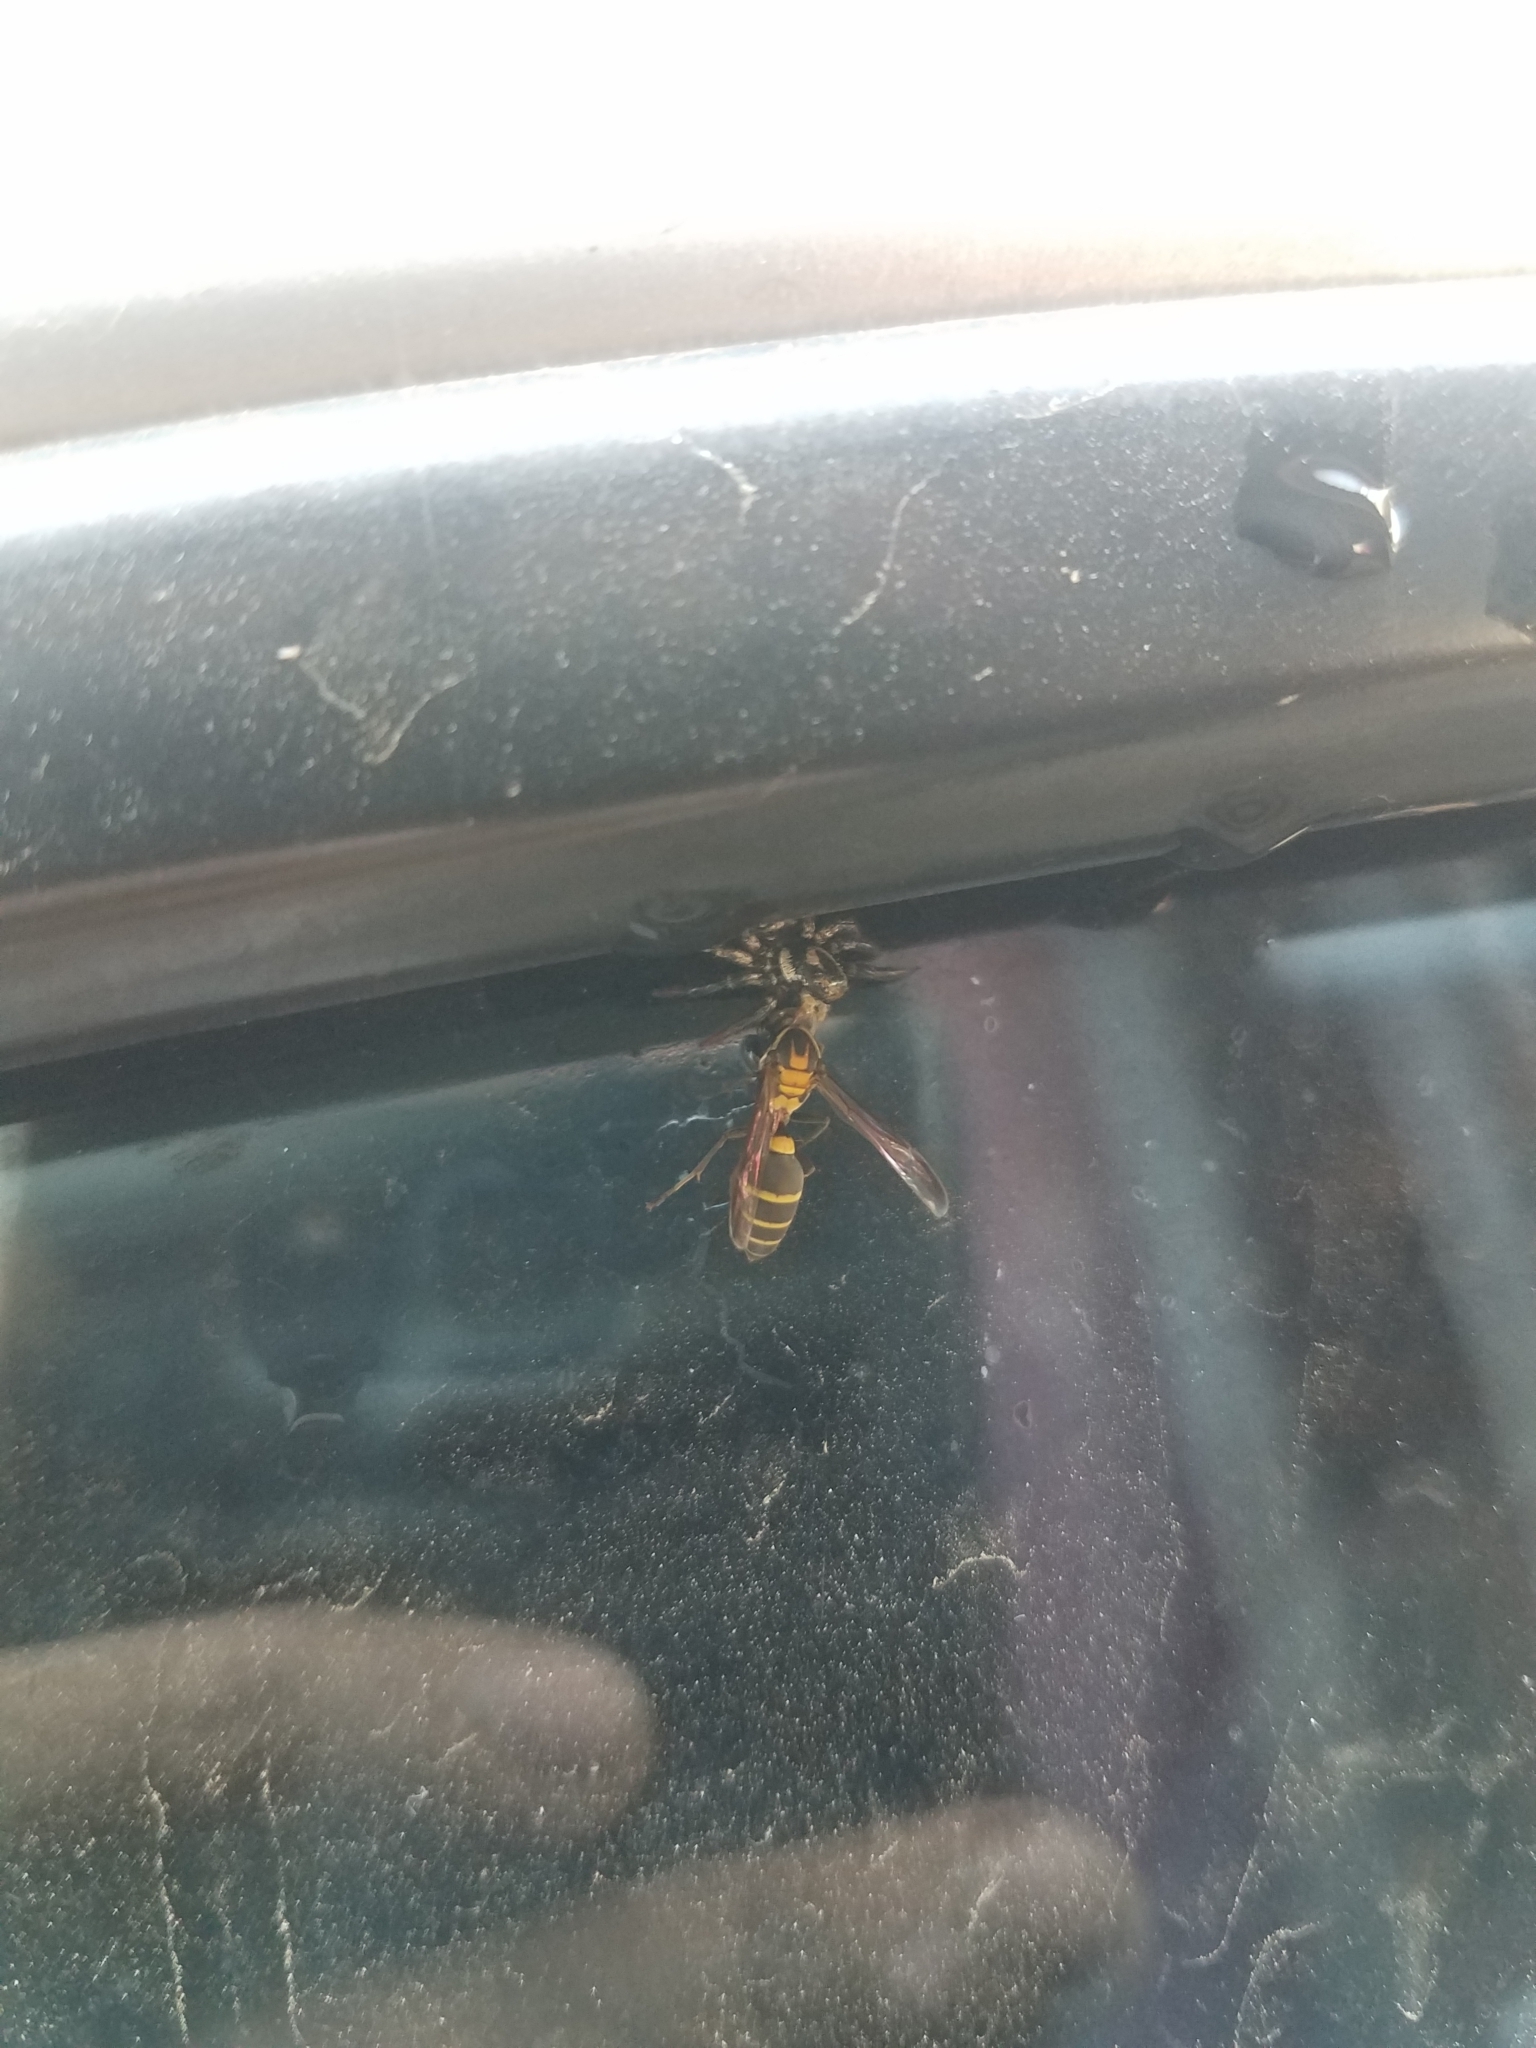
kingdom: Animalia
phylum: Arthropoda
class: Insecta
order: Hymenoptera
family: Eumenidae
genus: Polybia
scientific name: Polybia occidentalis
